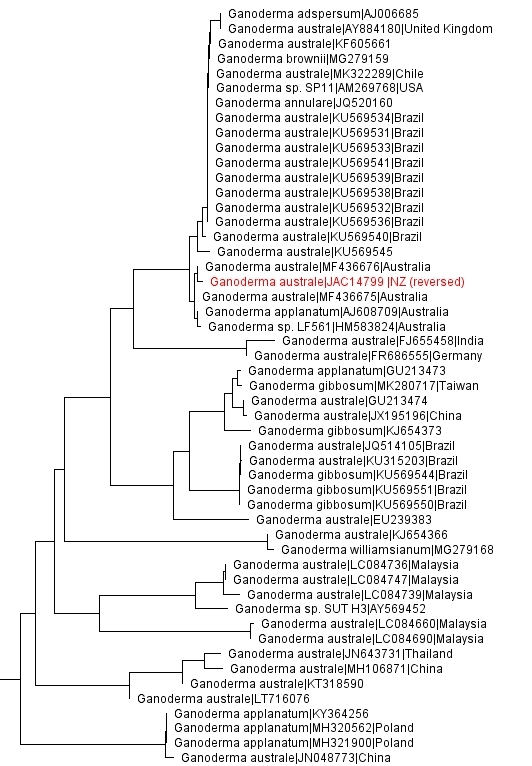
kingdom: Fungi
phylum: Basidiomycota
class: Agaricomycetes
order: Polyporales
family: Polyporaceae
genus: Ganoderma
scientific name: Ganoderma australe
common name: Southern bracket
